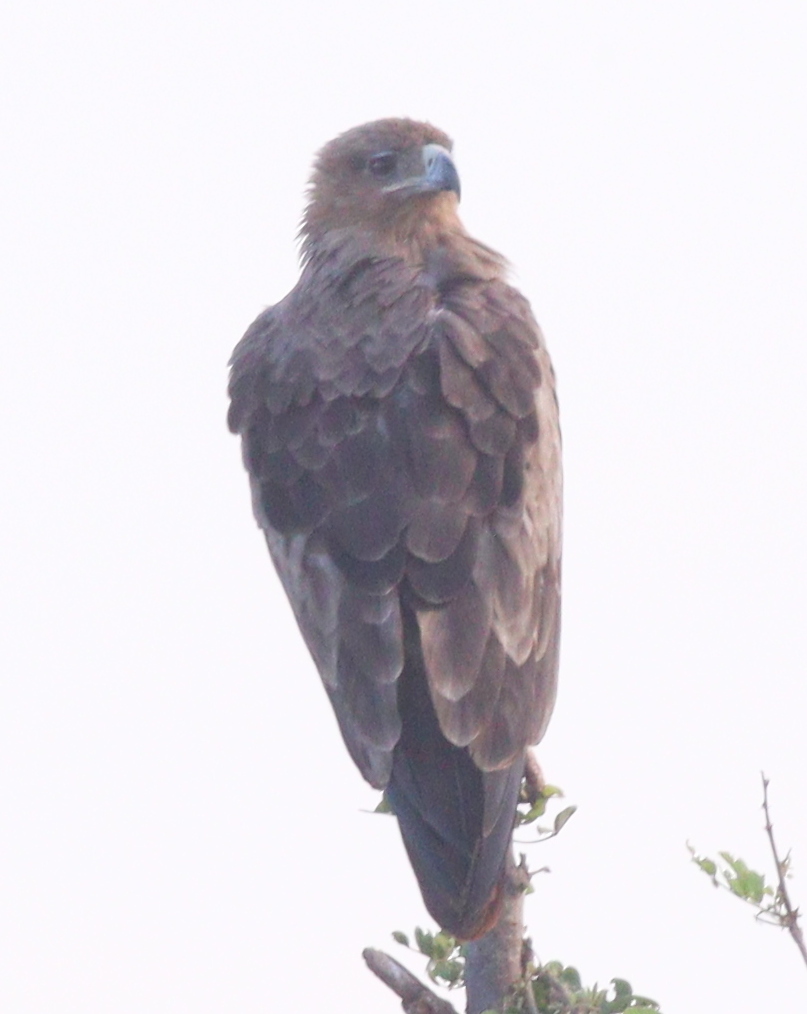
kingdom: Animalia
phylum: Chordata
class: Aves
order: Accipitriformes
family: Accipitridae
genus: Aquila
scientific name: Aquila rapax
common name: Tawny eagle
